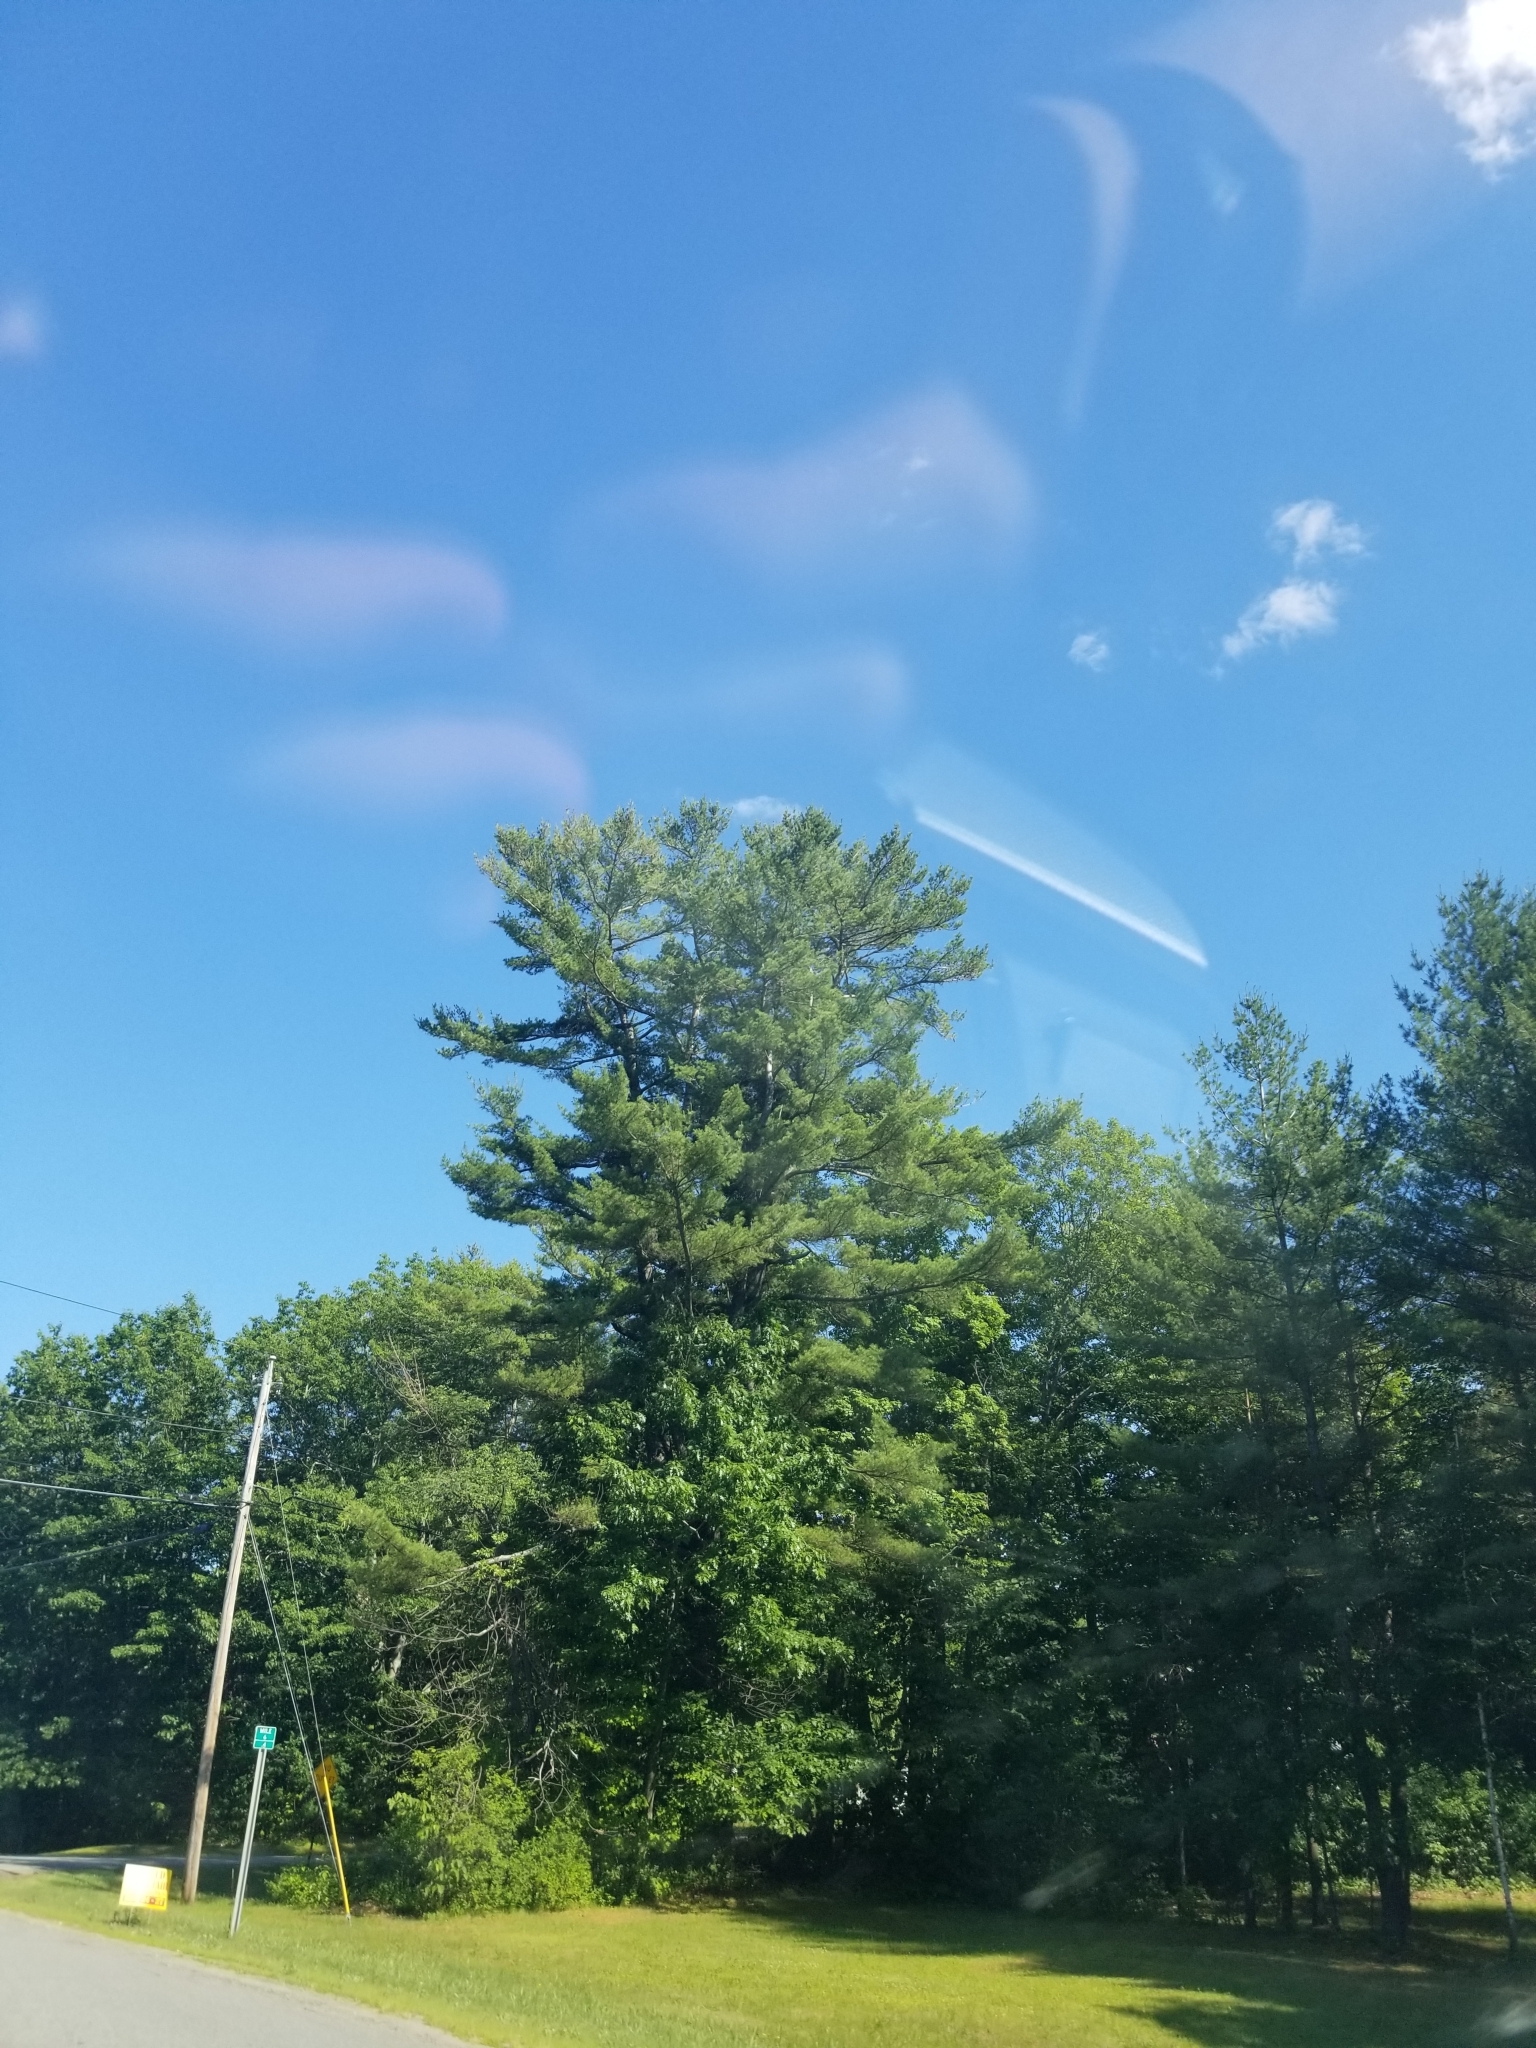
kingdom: Plantae
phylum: Tracheophyta
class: Pinopsida
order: Pinales
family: Pinaceae
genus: Pinus
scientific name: Pinus strobus
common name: Weymouth pine
